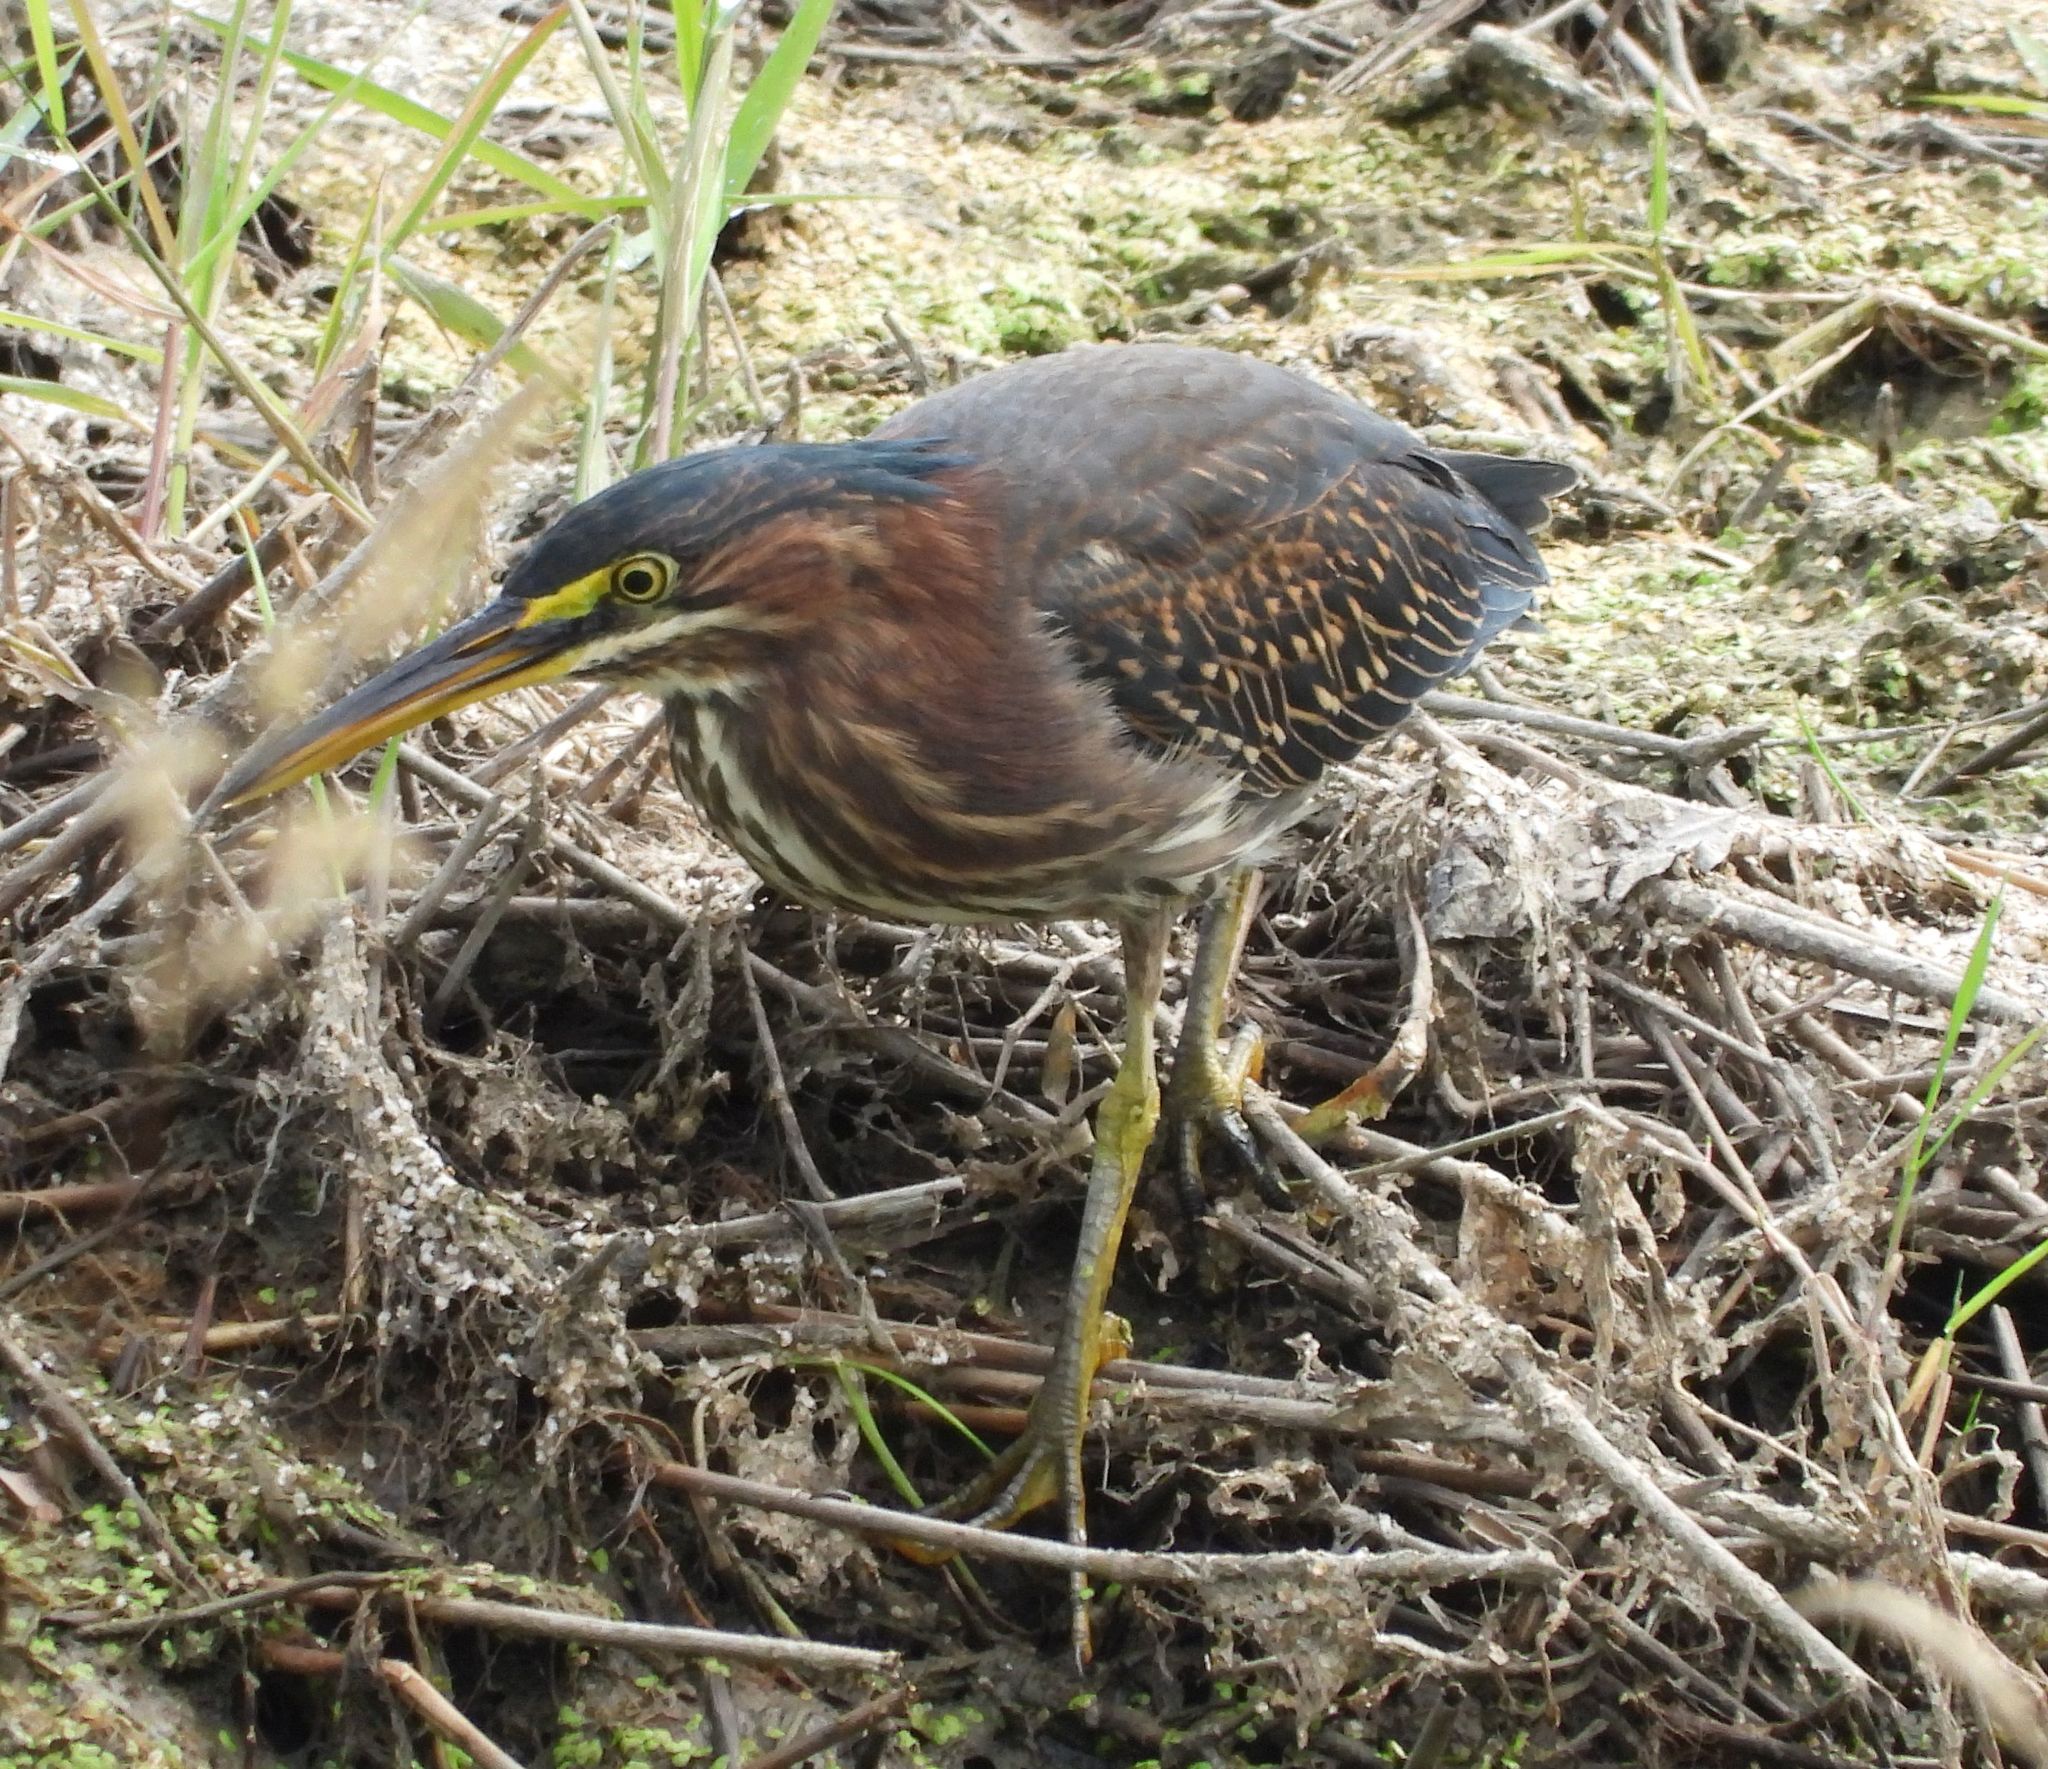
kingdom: Animalia
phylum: Chordata
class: Aves
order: Pelecaniformes
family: Ardeidae
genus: Butorides
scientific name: Butorides virescens
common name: Green heron
